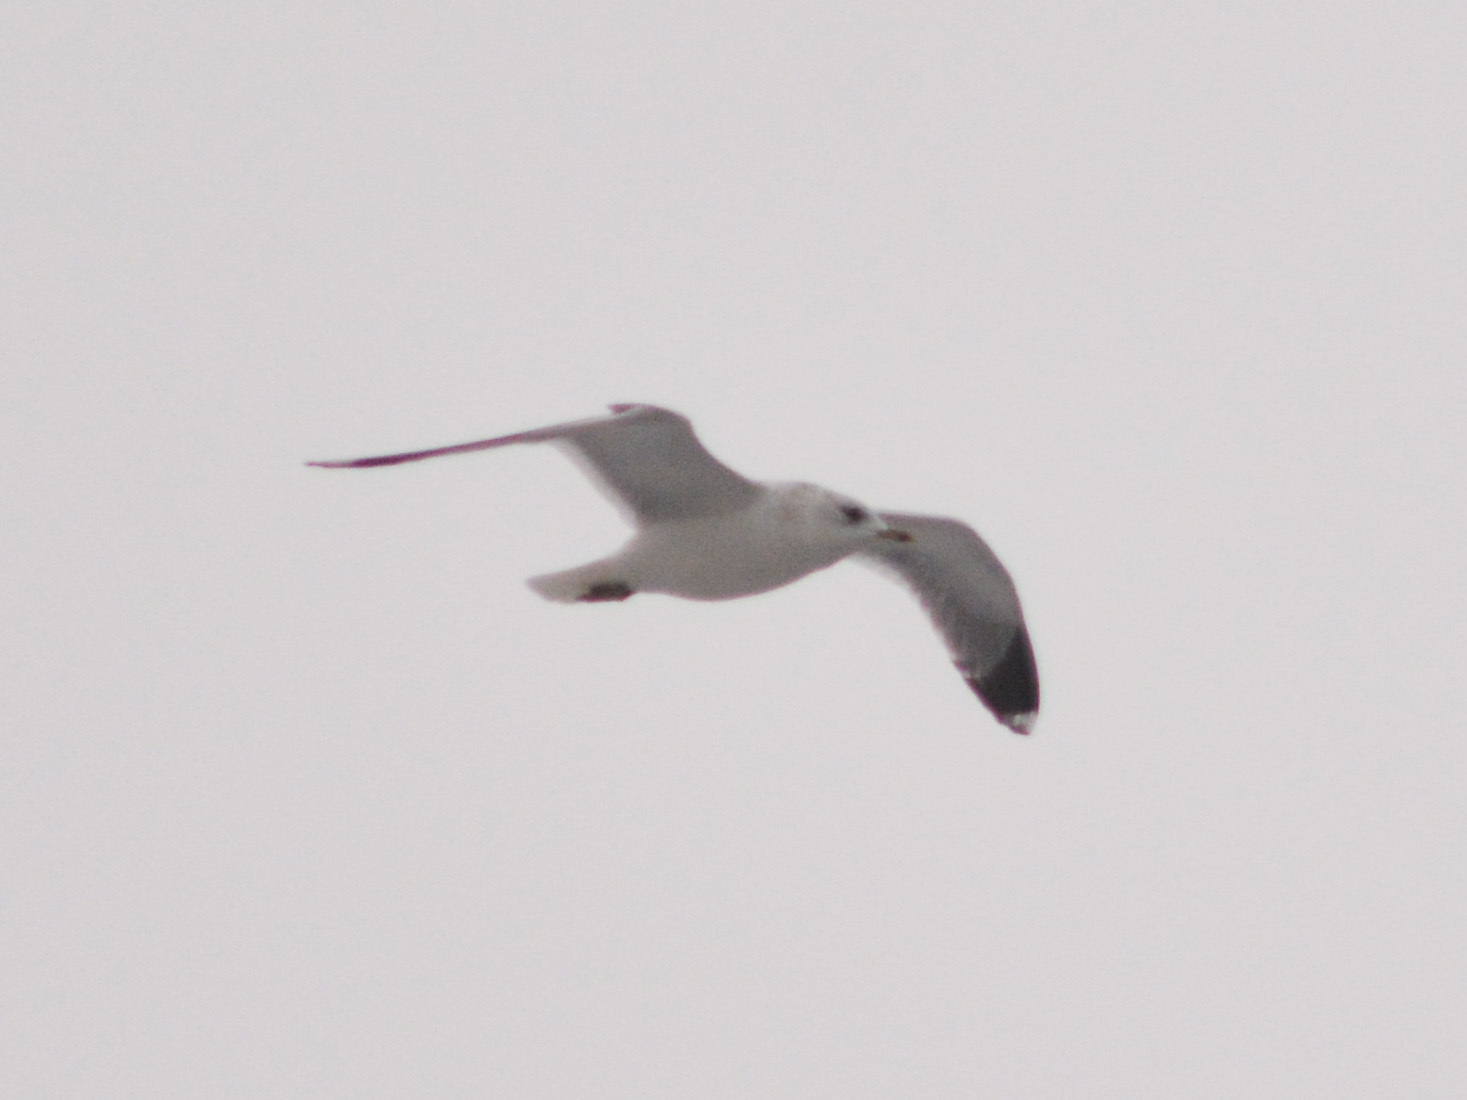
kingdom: Animalia
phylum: Chordata
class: Aves
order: Charadriiformes
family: Laridae
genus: Larus
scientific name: Larus canus
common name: Mew gull
